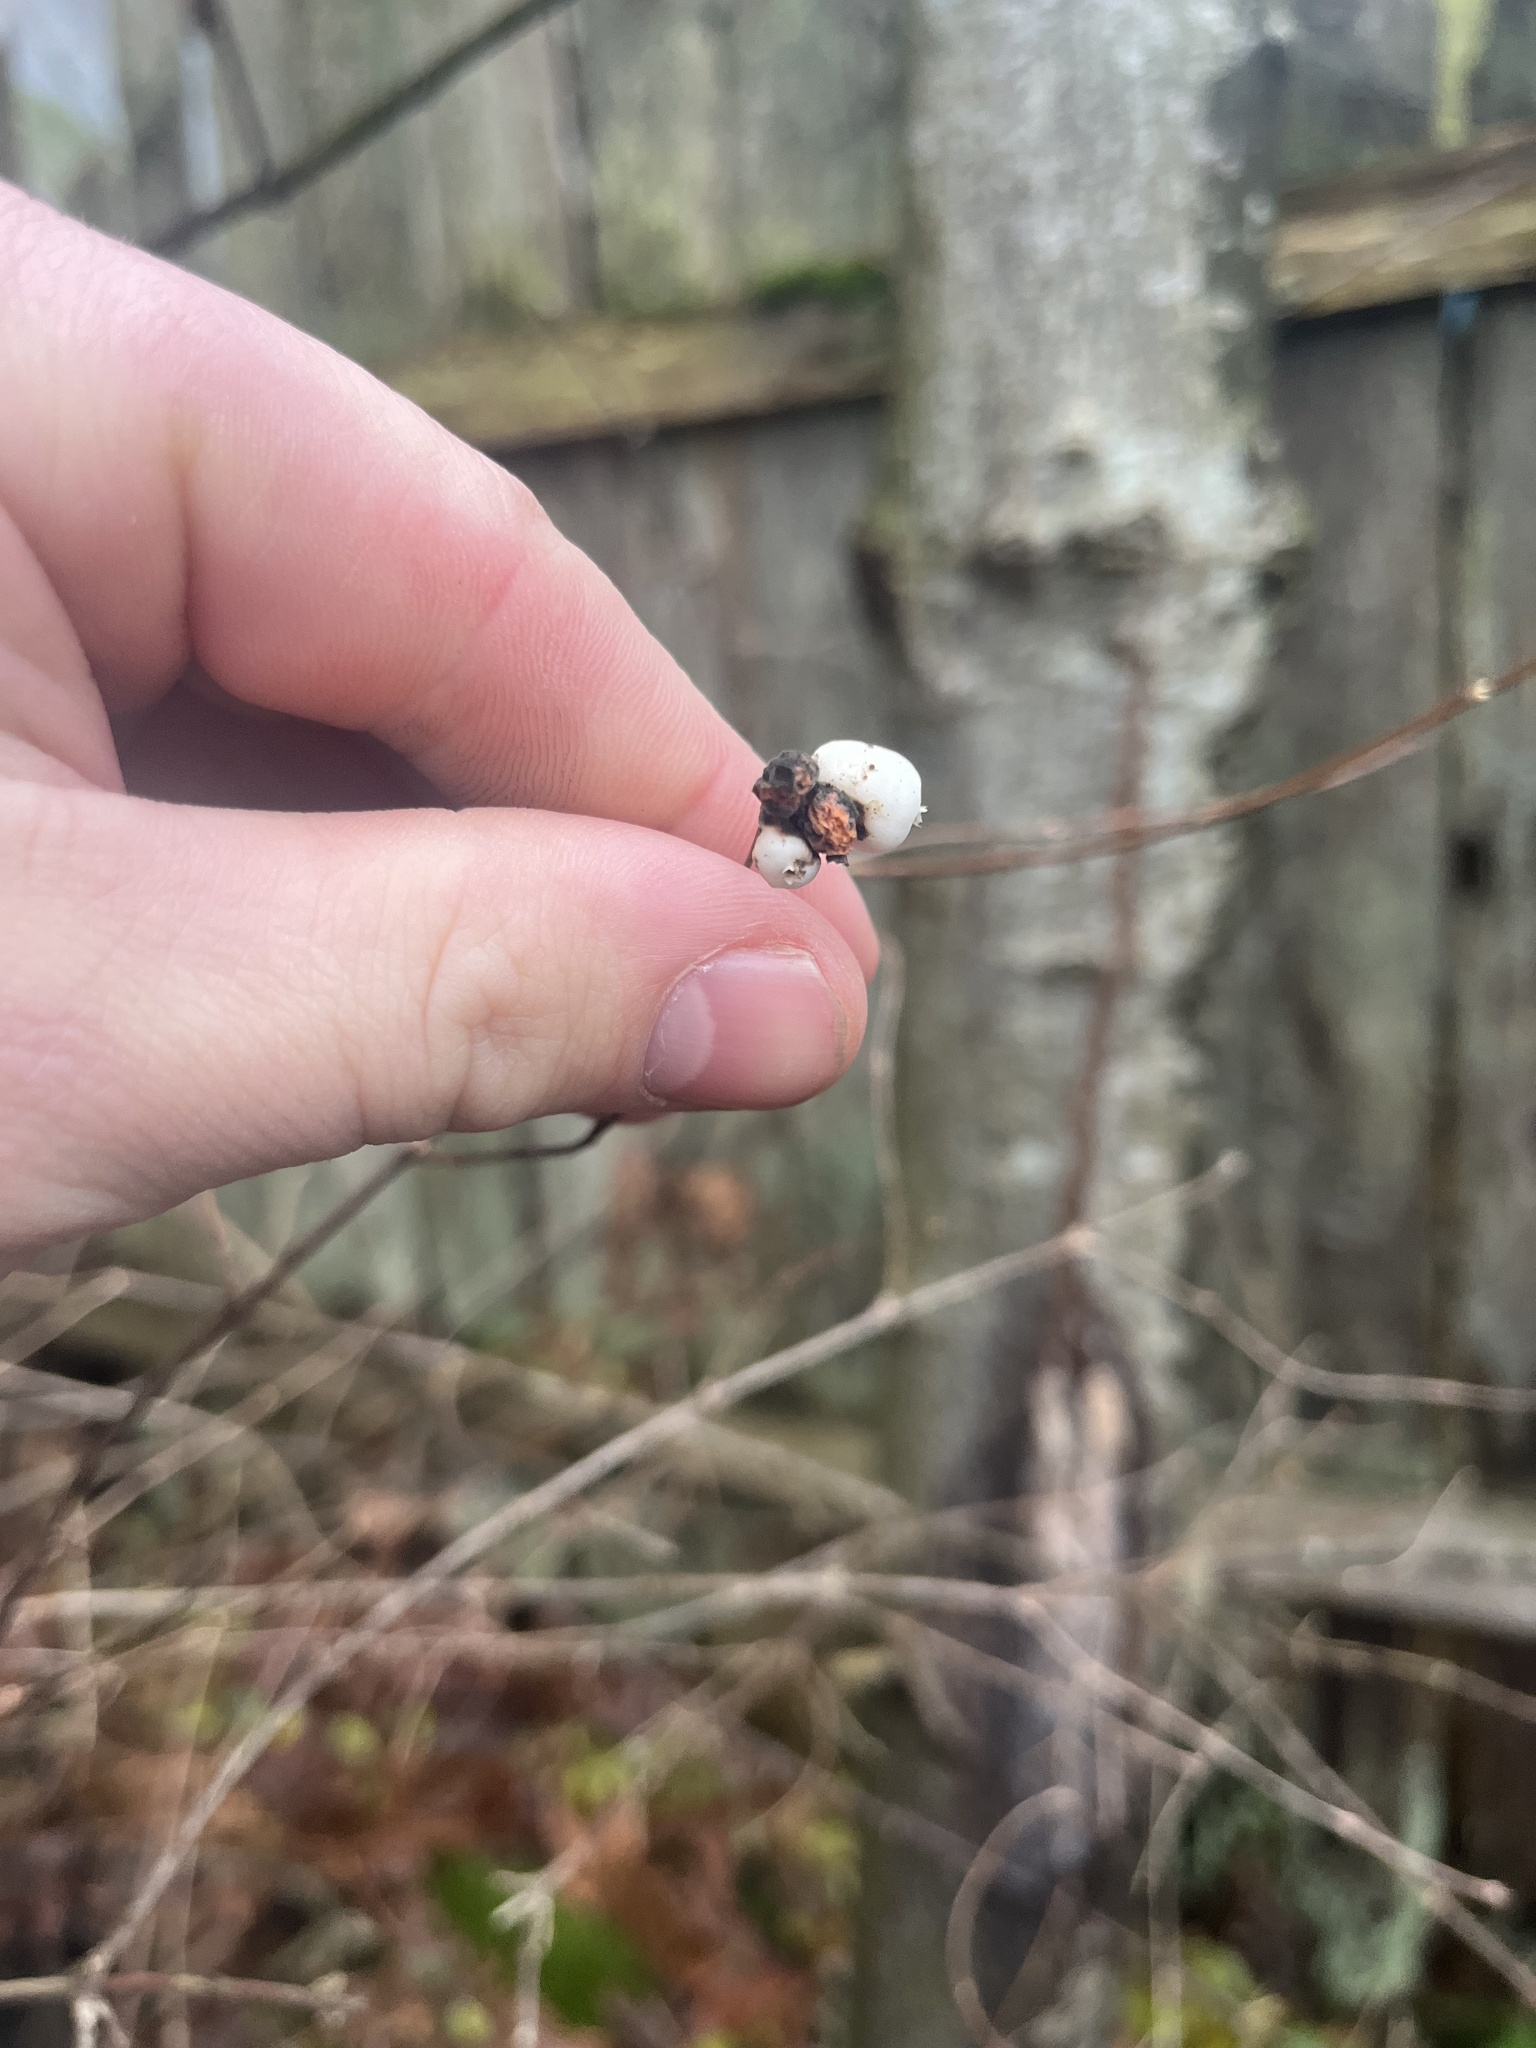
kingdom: Plantae
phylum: Tracheophyta
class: Magnoliopsida
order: Dipsacales
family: Caprifoliaceae
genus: Symphoricarpos
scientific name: Symphoricarpos albus
